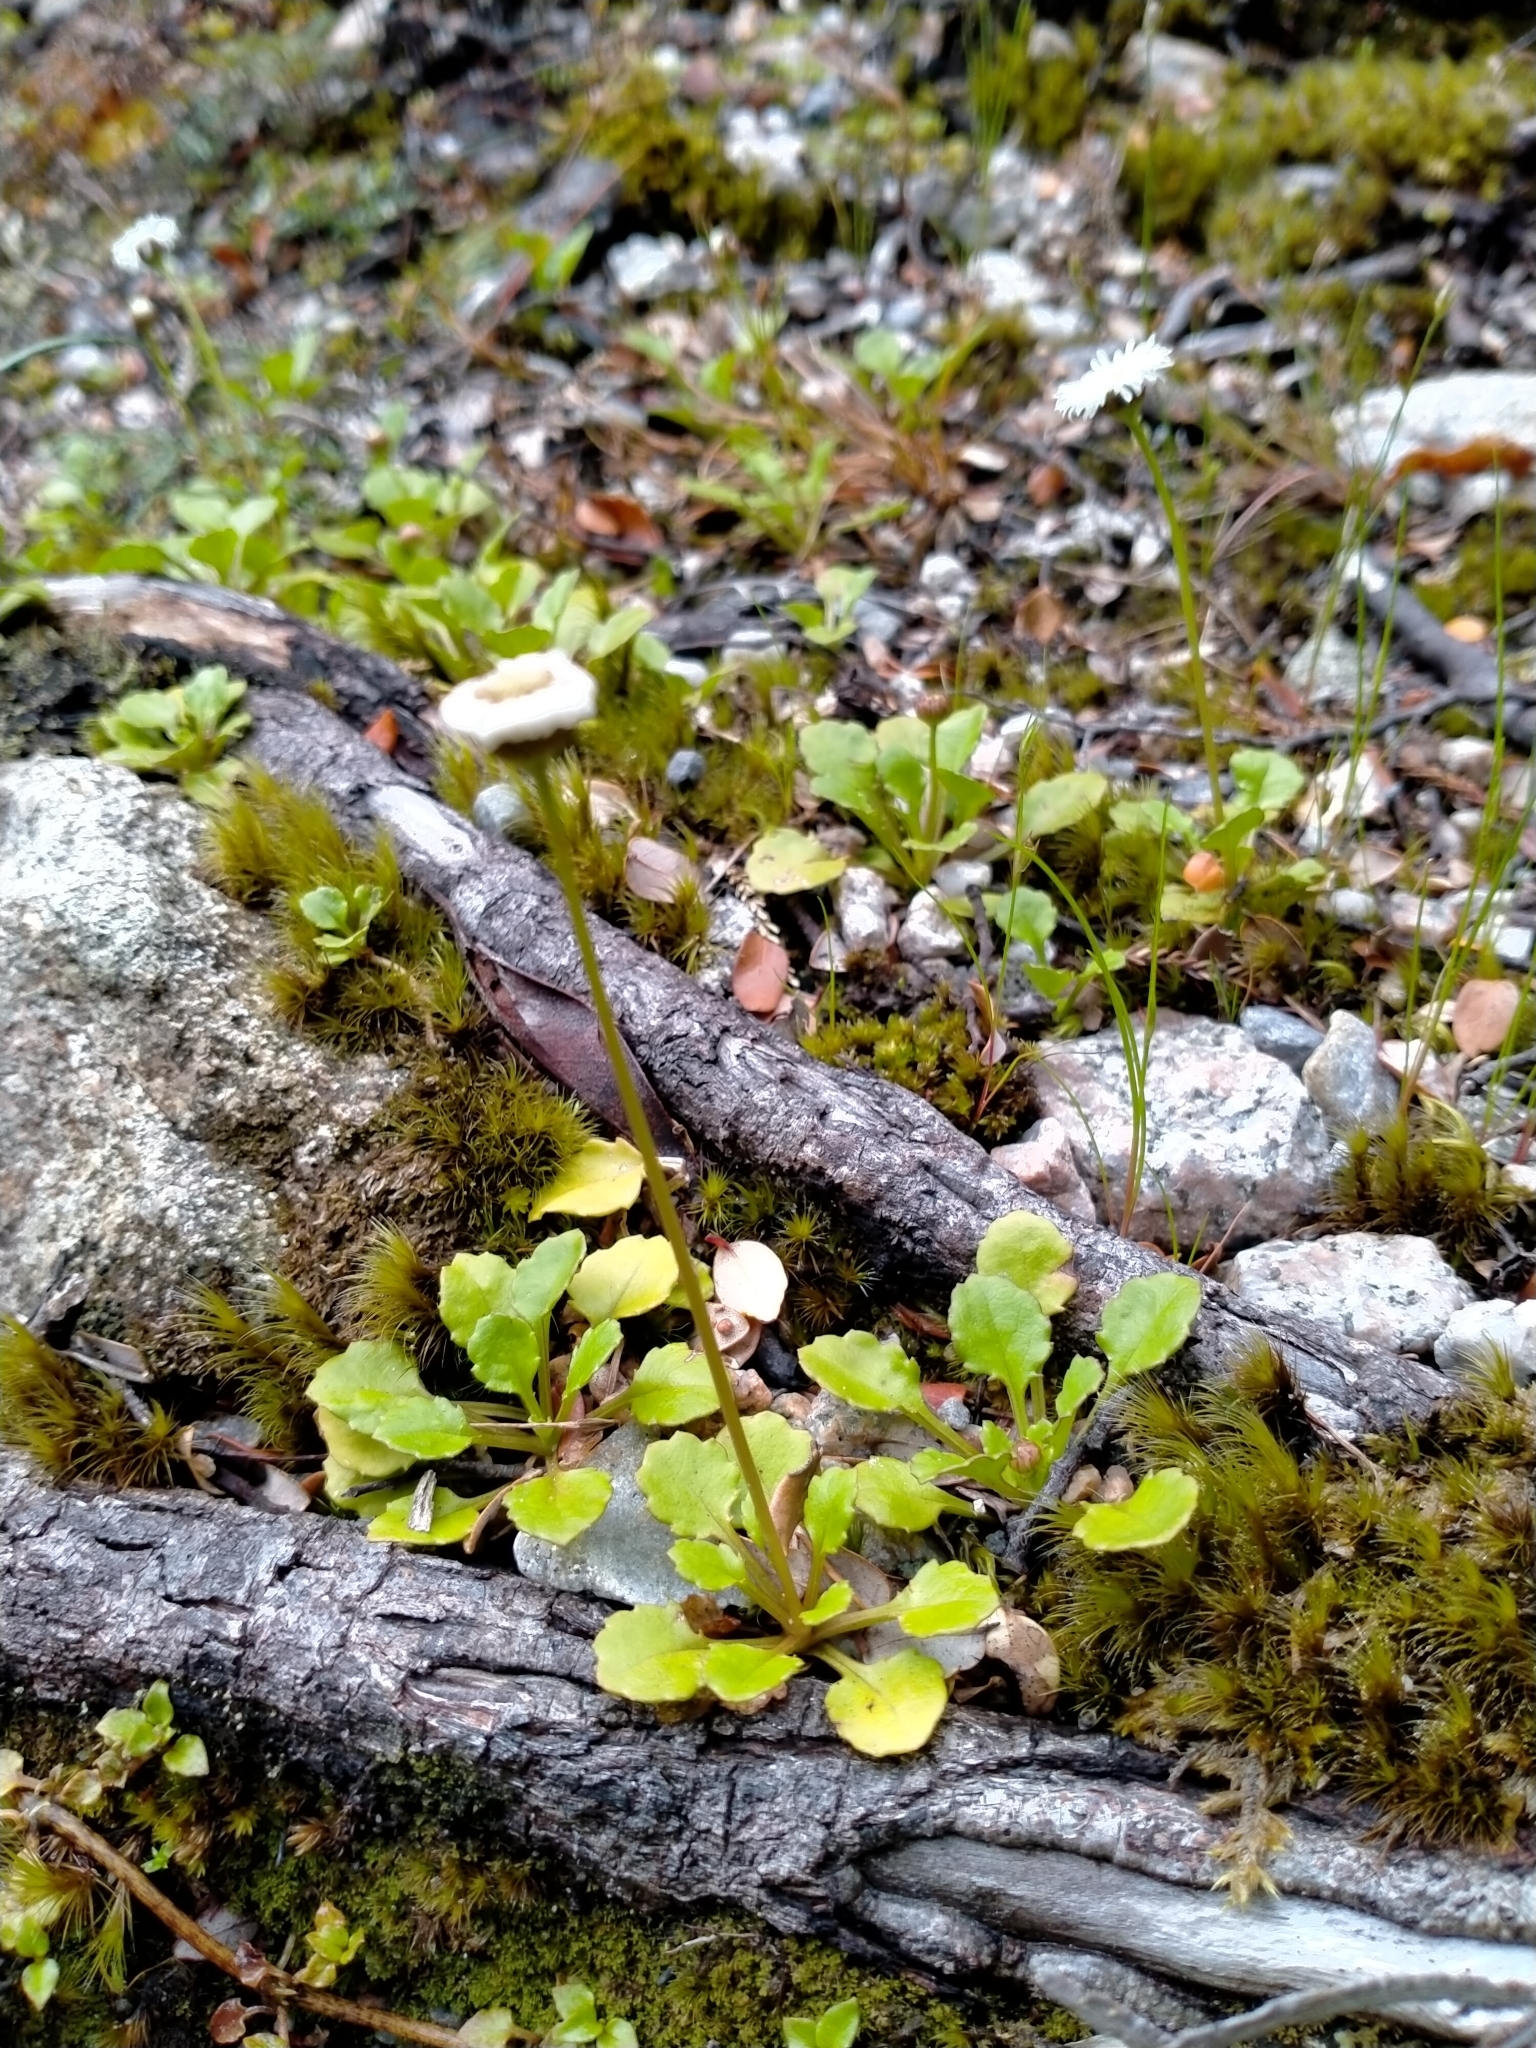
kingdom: Plantae
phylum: Tracheophyta
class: Magnoliopsida
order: Asterales
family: Asteraceae
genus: Lagenophora
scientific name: Lagenophora pumila
